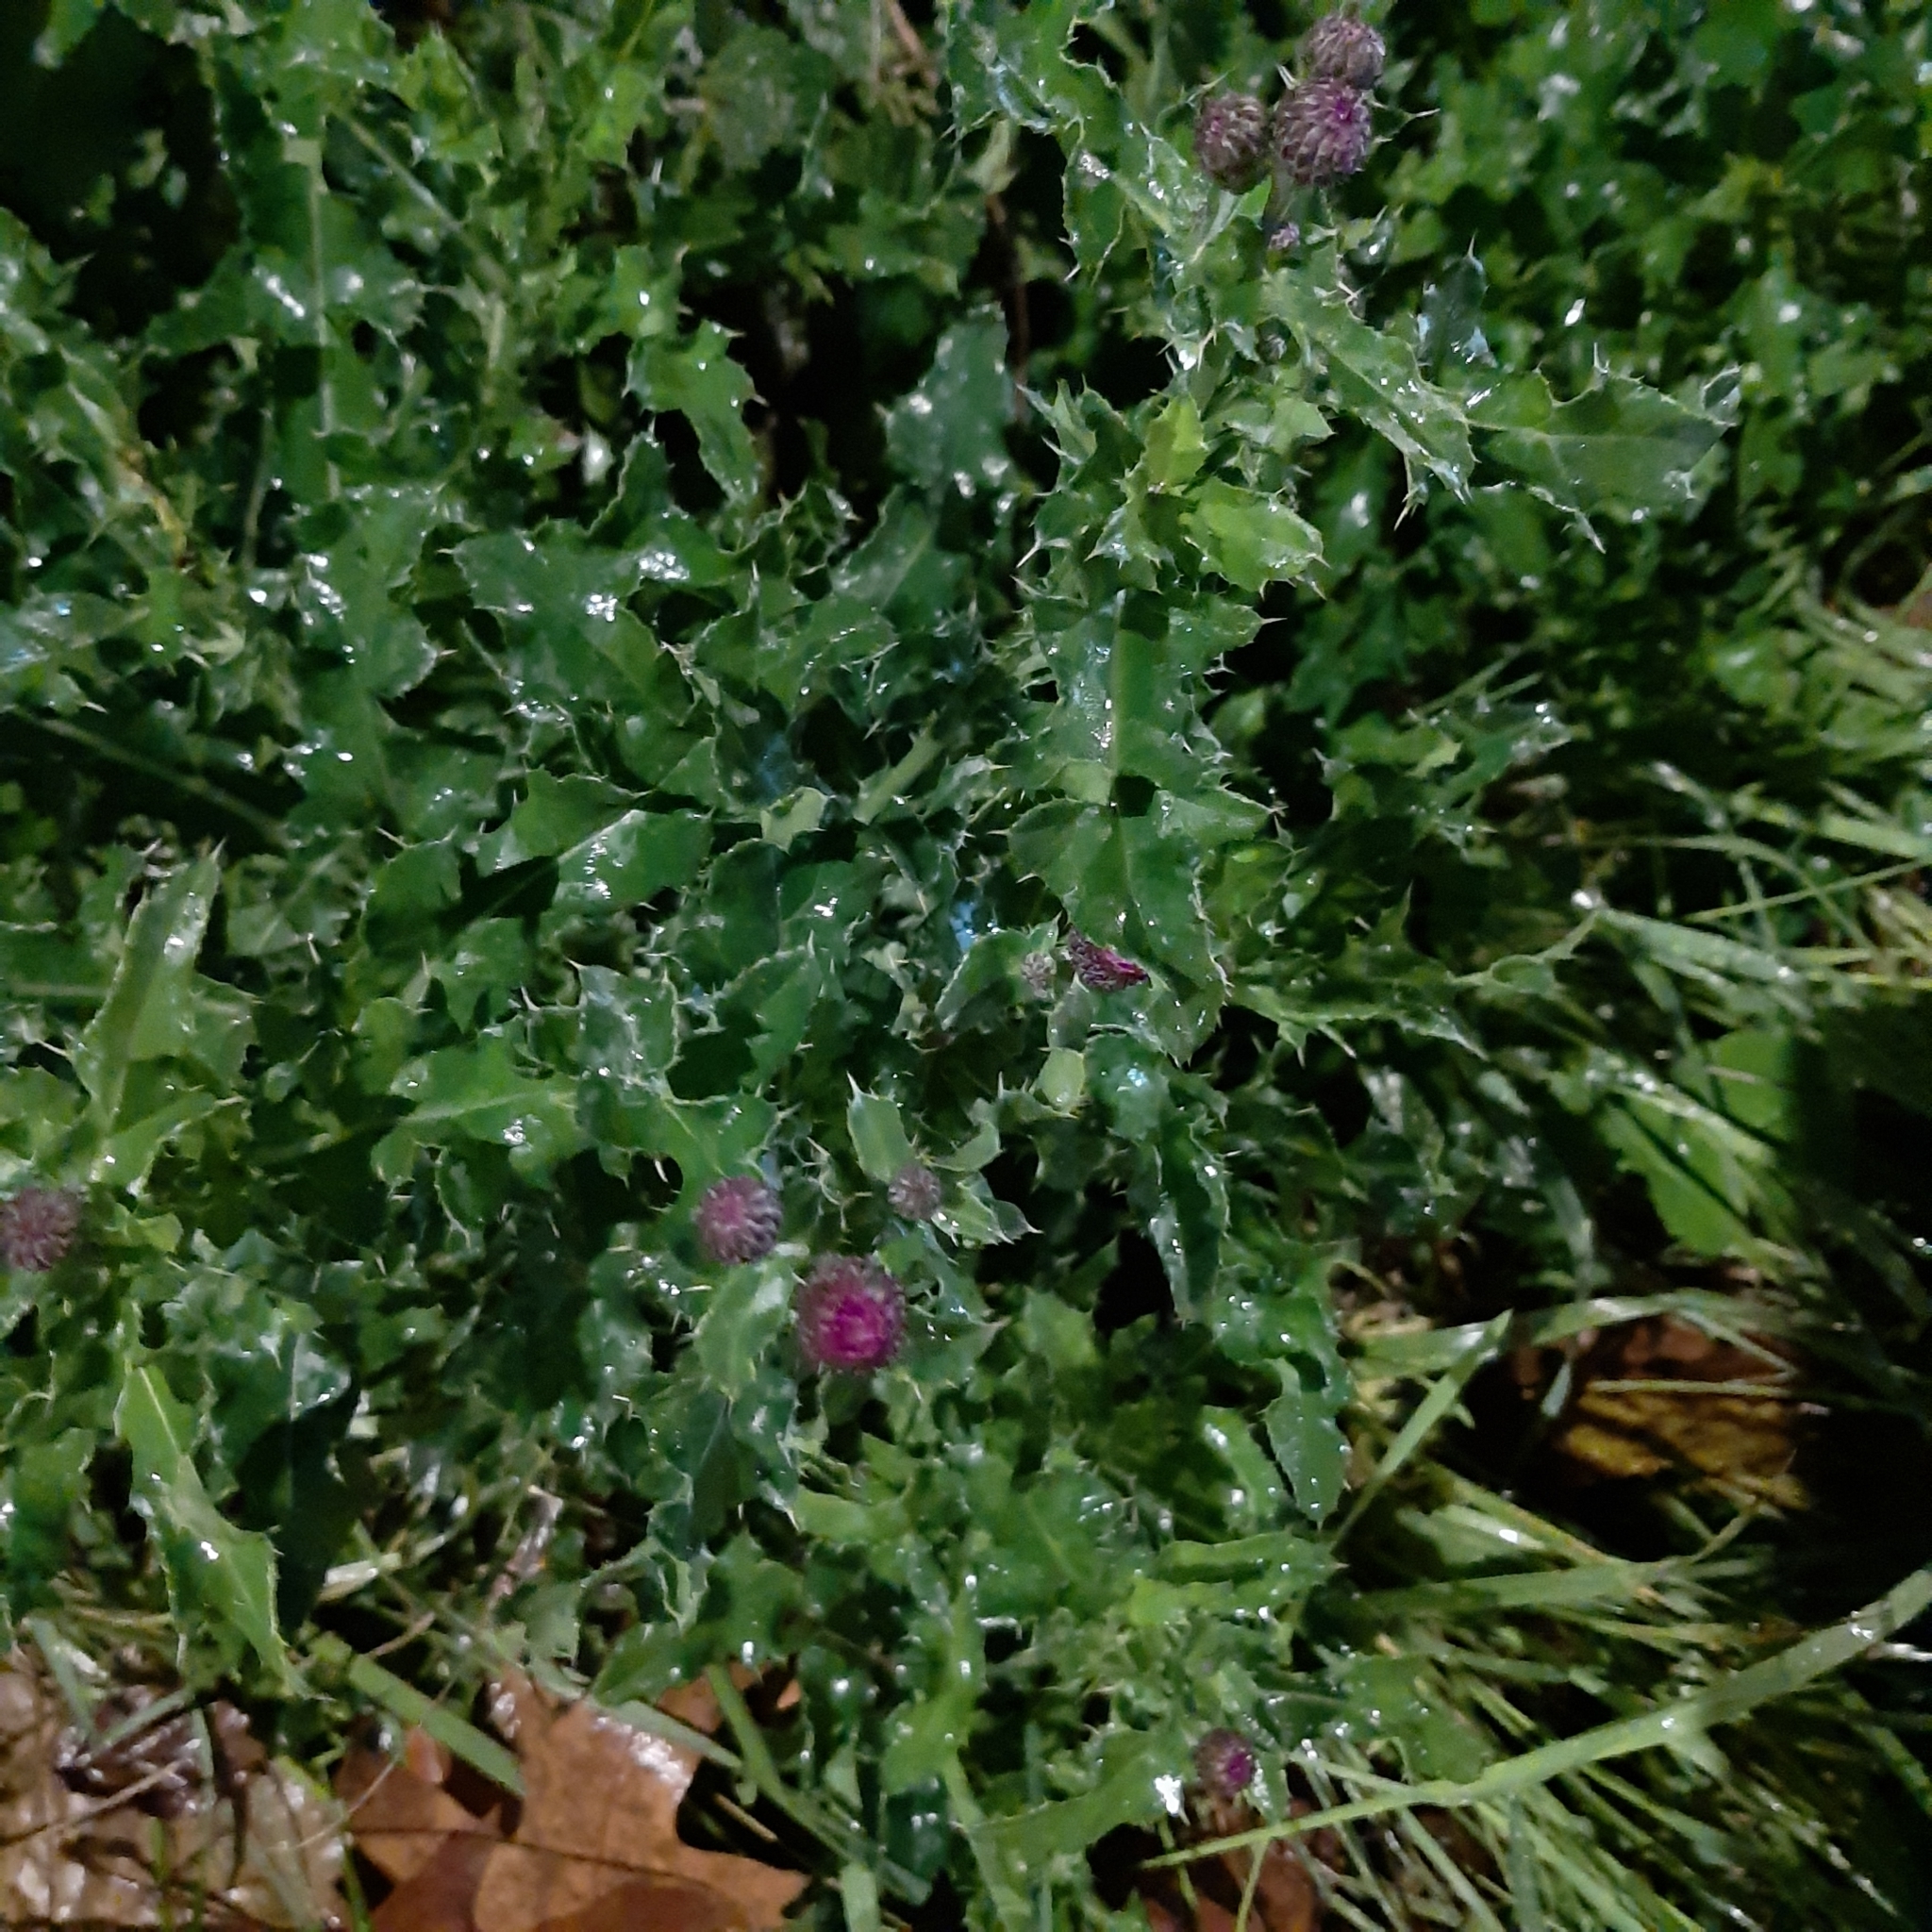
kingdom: Plantae
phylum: Tracheophyta
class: Magnoliopsida
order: Asterales
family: Asteraceae
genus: Cirsium
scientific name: Cirsium arvense
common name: Creeping thistle
